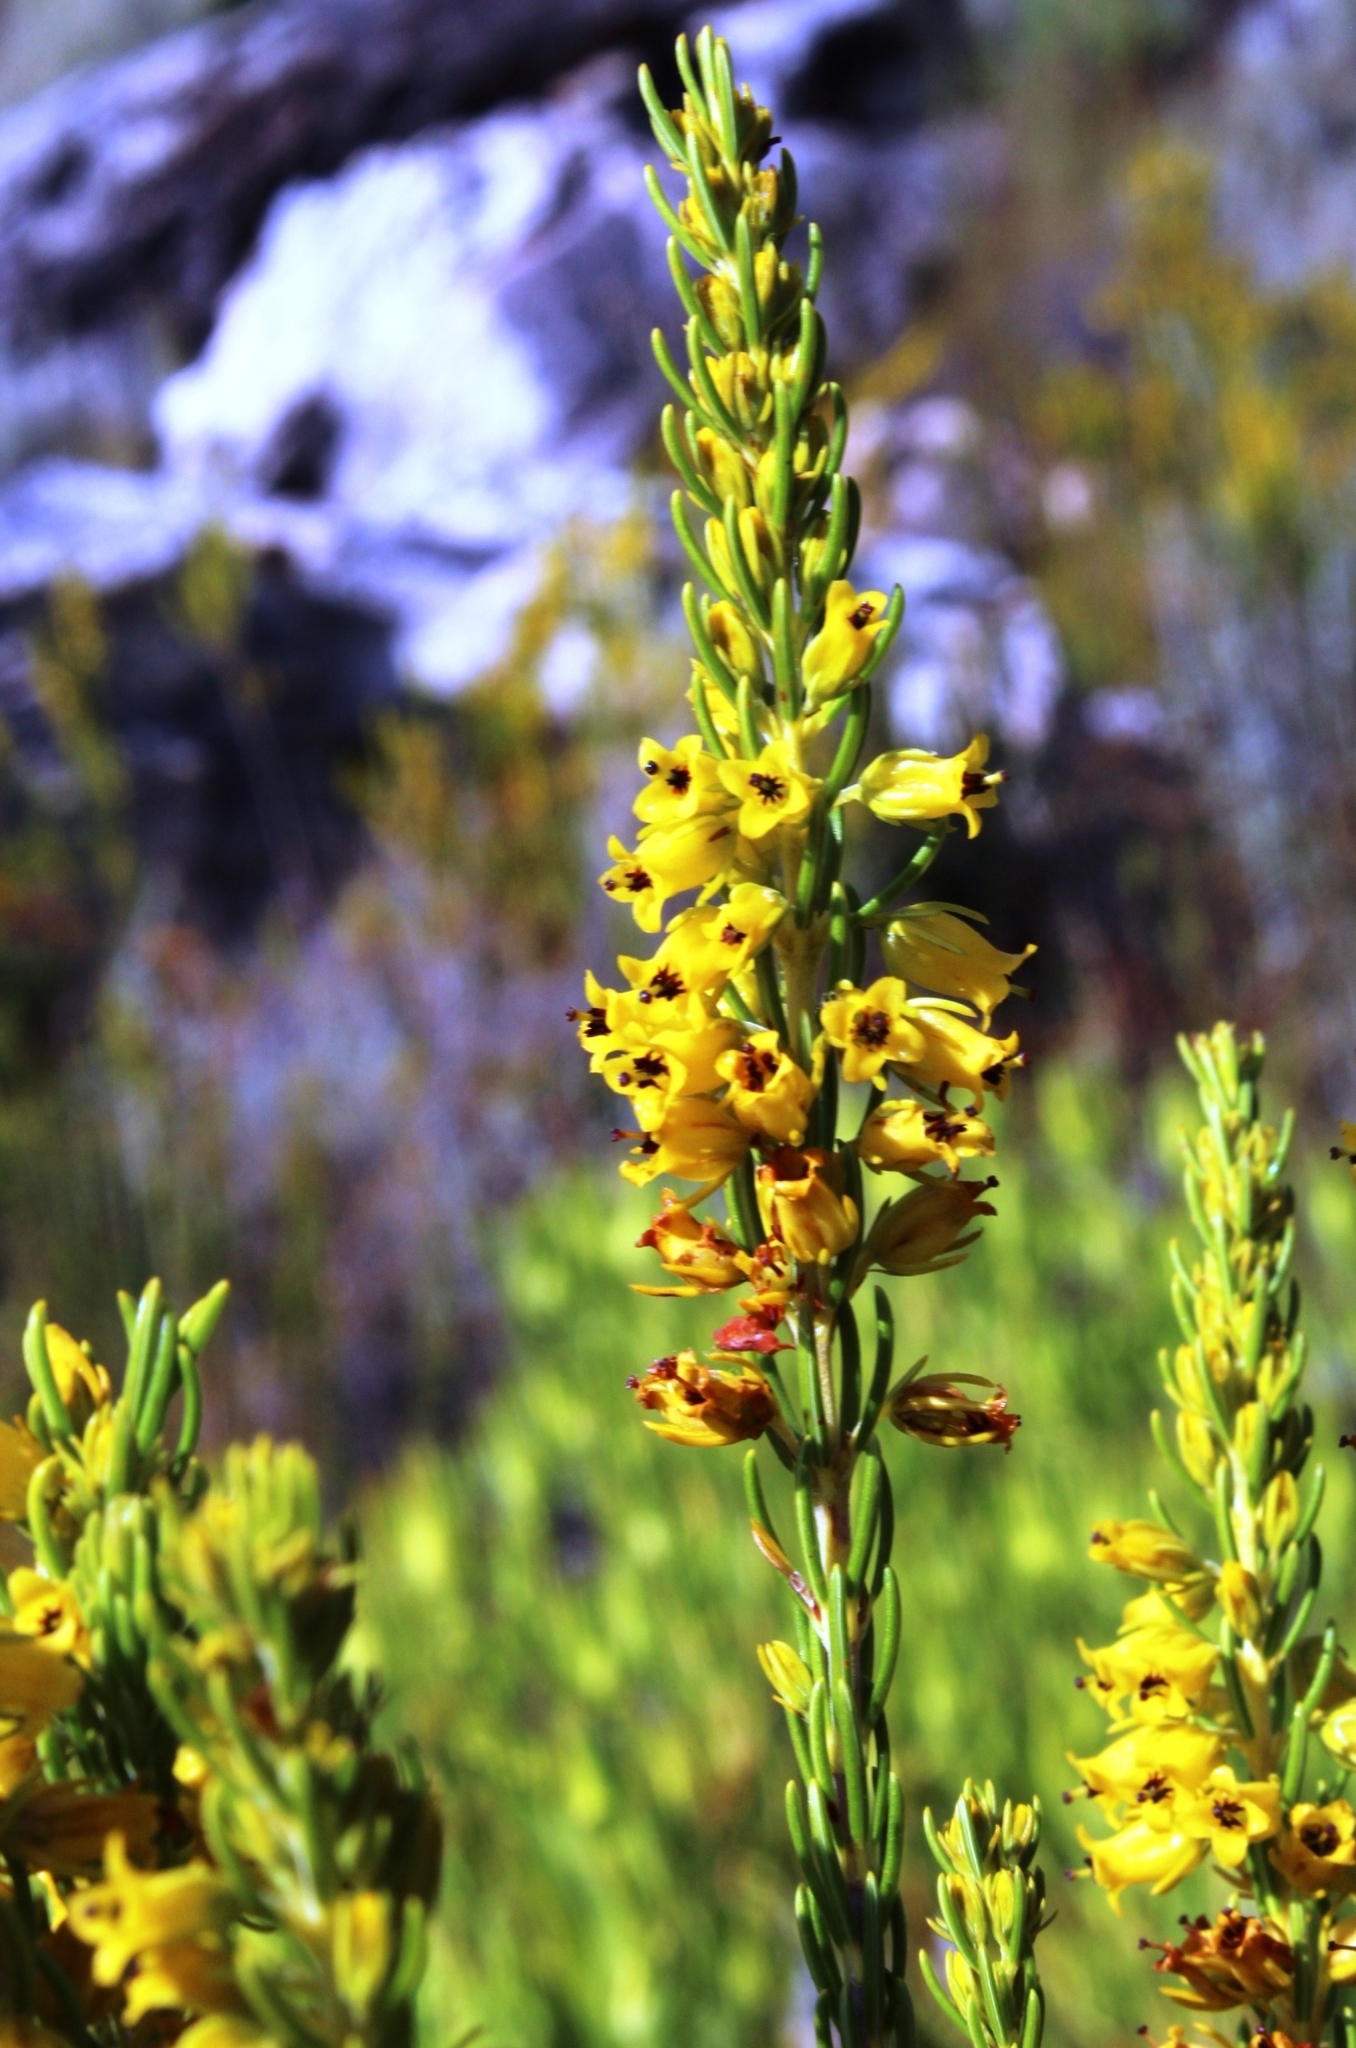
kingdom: Plantae
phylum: Tracheophyta
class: Magnoliopsida
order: Ericales
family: Ericaceae
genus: Erica
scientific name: Erica parilis
